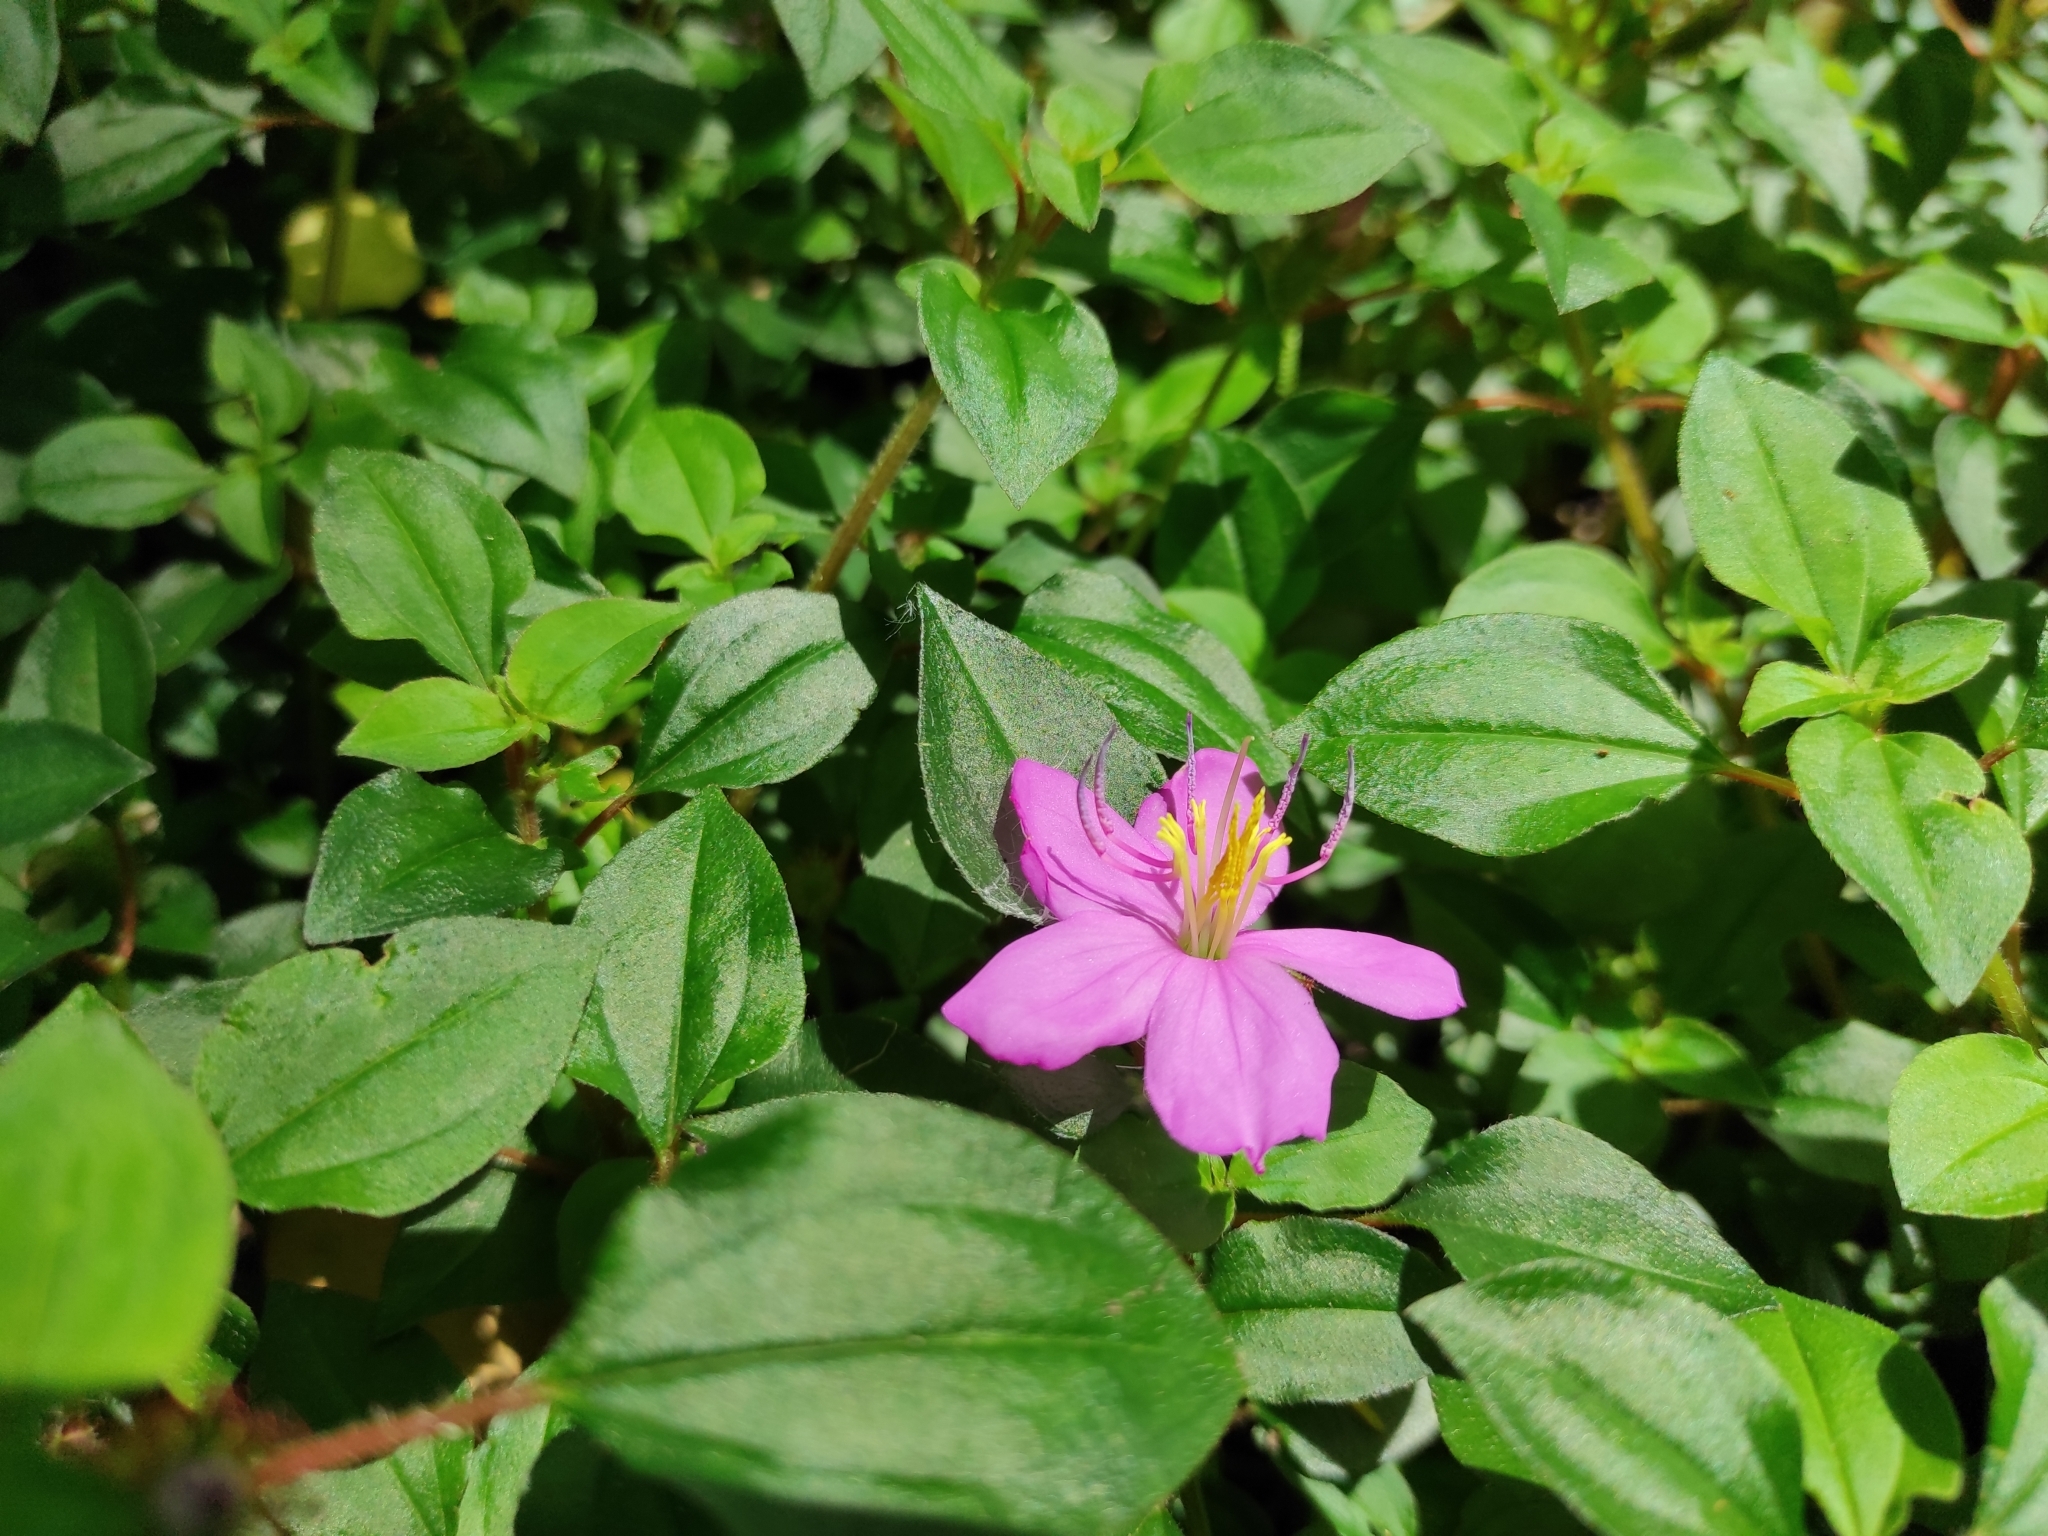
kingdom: Plantae
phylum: Tracheophyta
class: Magnoliopsida
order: Myrtales
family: Melastomataceae
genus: Heterotis
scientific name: Heterotis rotundifolia
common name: Pinklady
